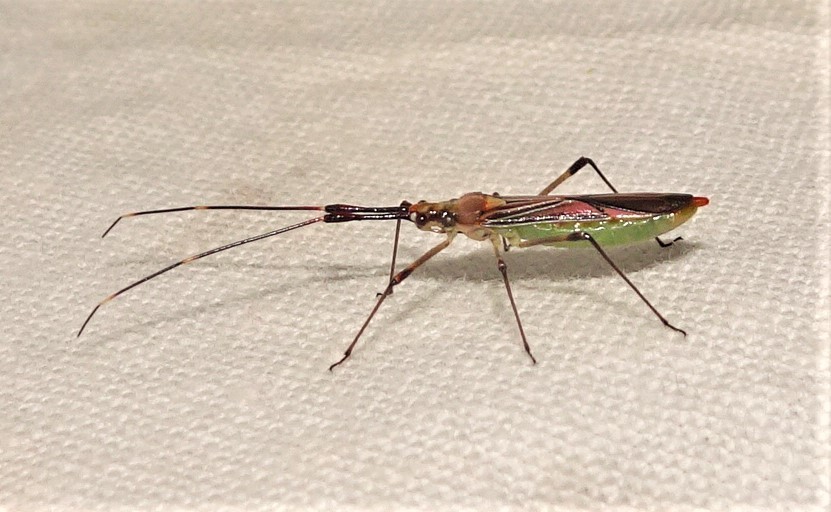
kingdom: Animalia
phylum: Arthropoda
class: Insecta
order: Hemiptera
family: Miridae
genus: Rayieria
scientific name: Rayieria
